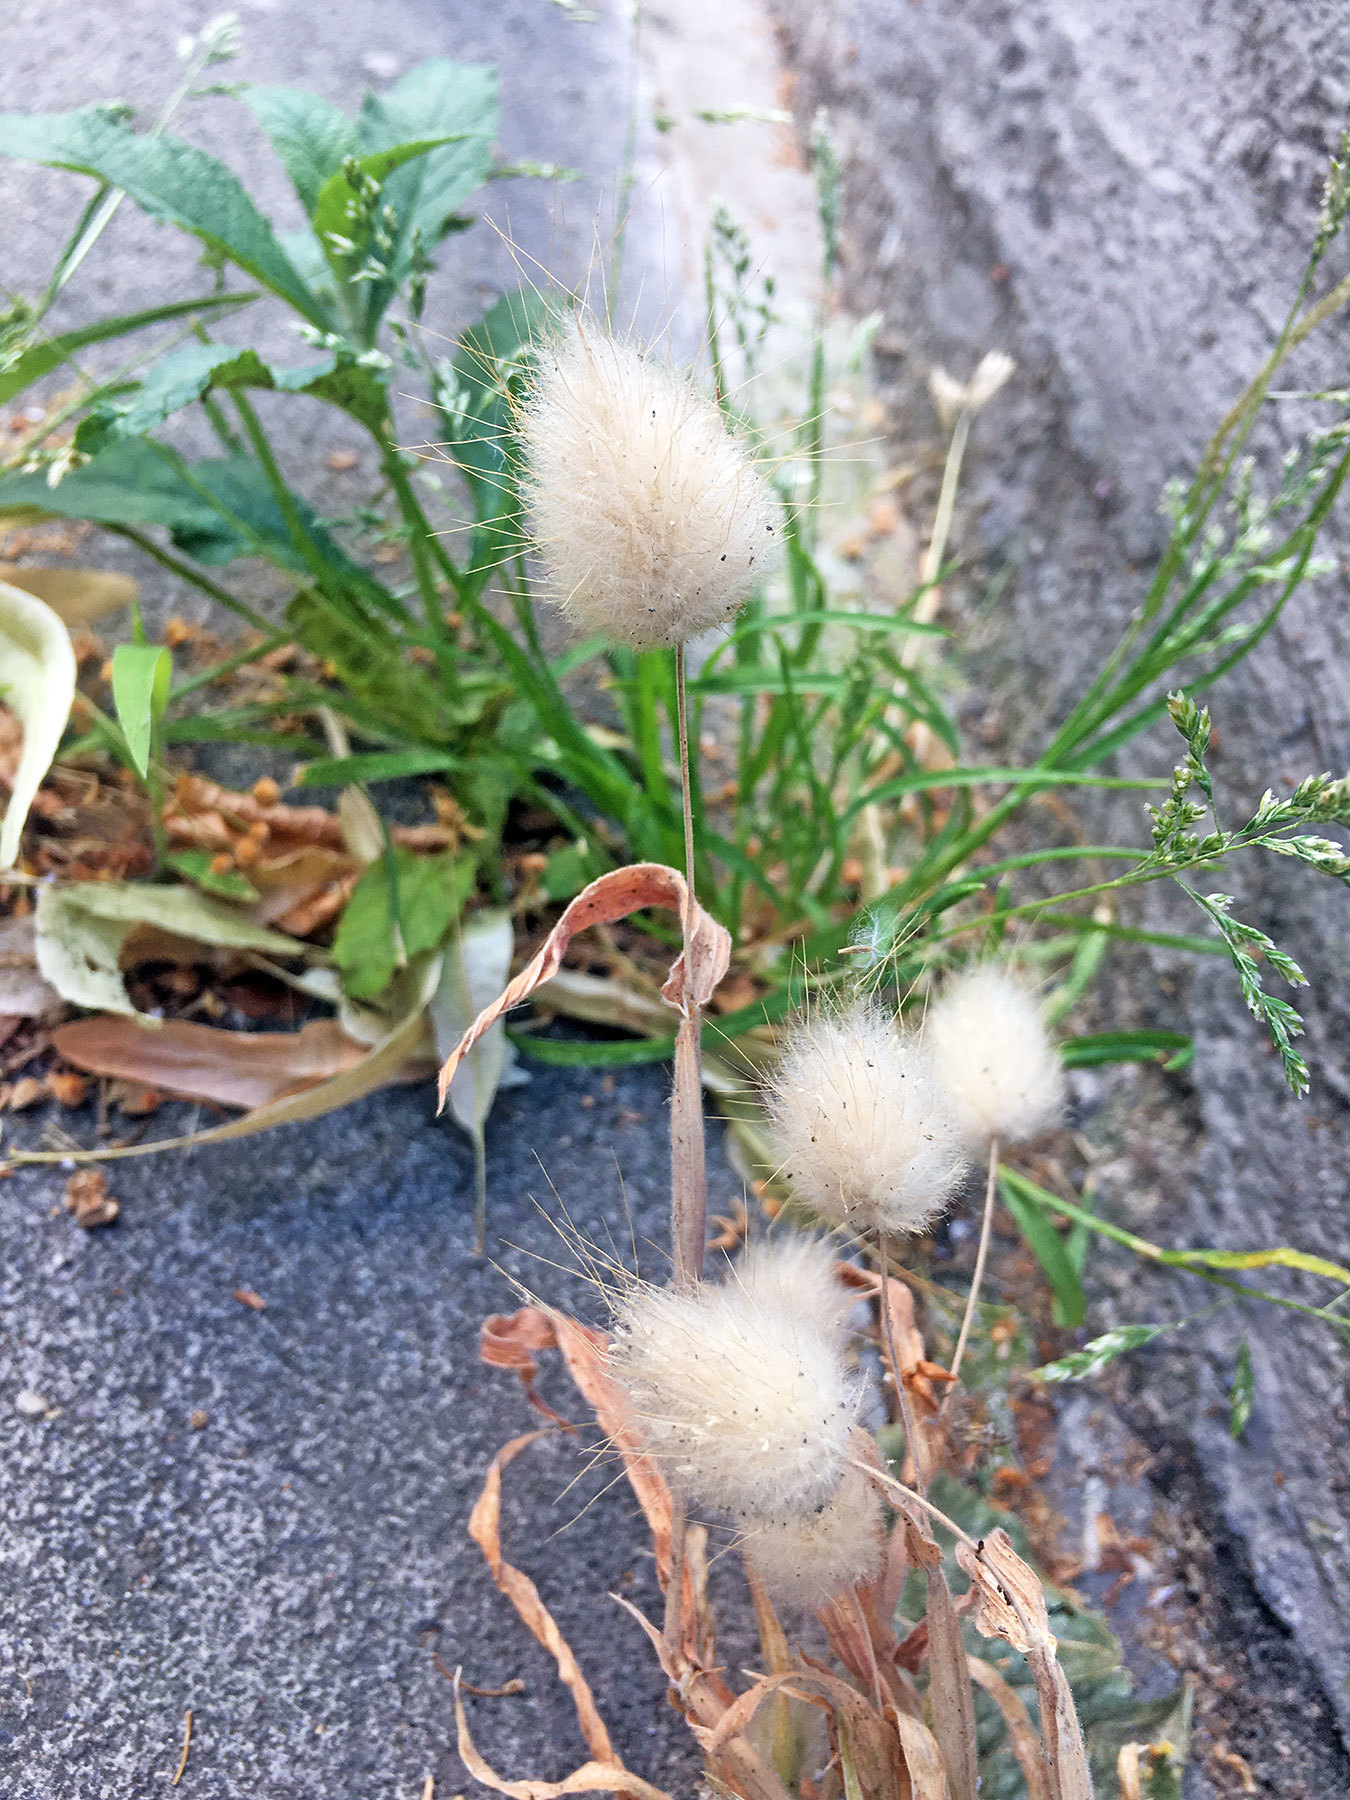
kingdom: Plantae
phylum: Tracheophyta
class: Liliopsida
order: Poales
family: Poaceae
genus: Lagurus
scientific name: Lagurus ovatus
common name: Hare's-tail
